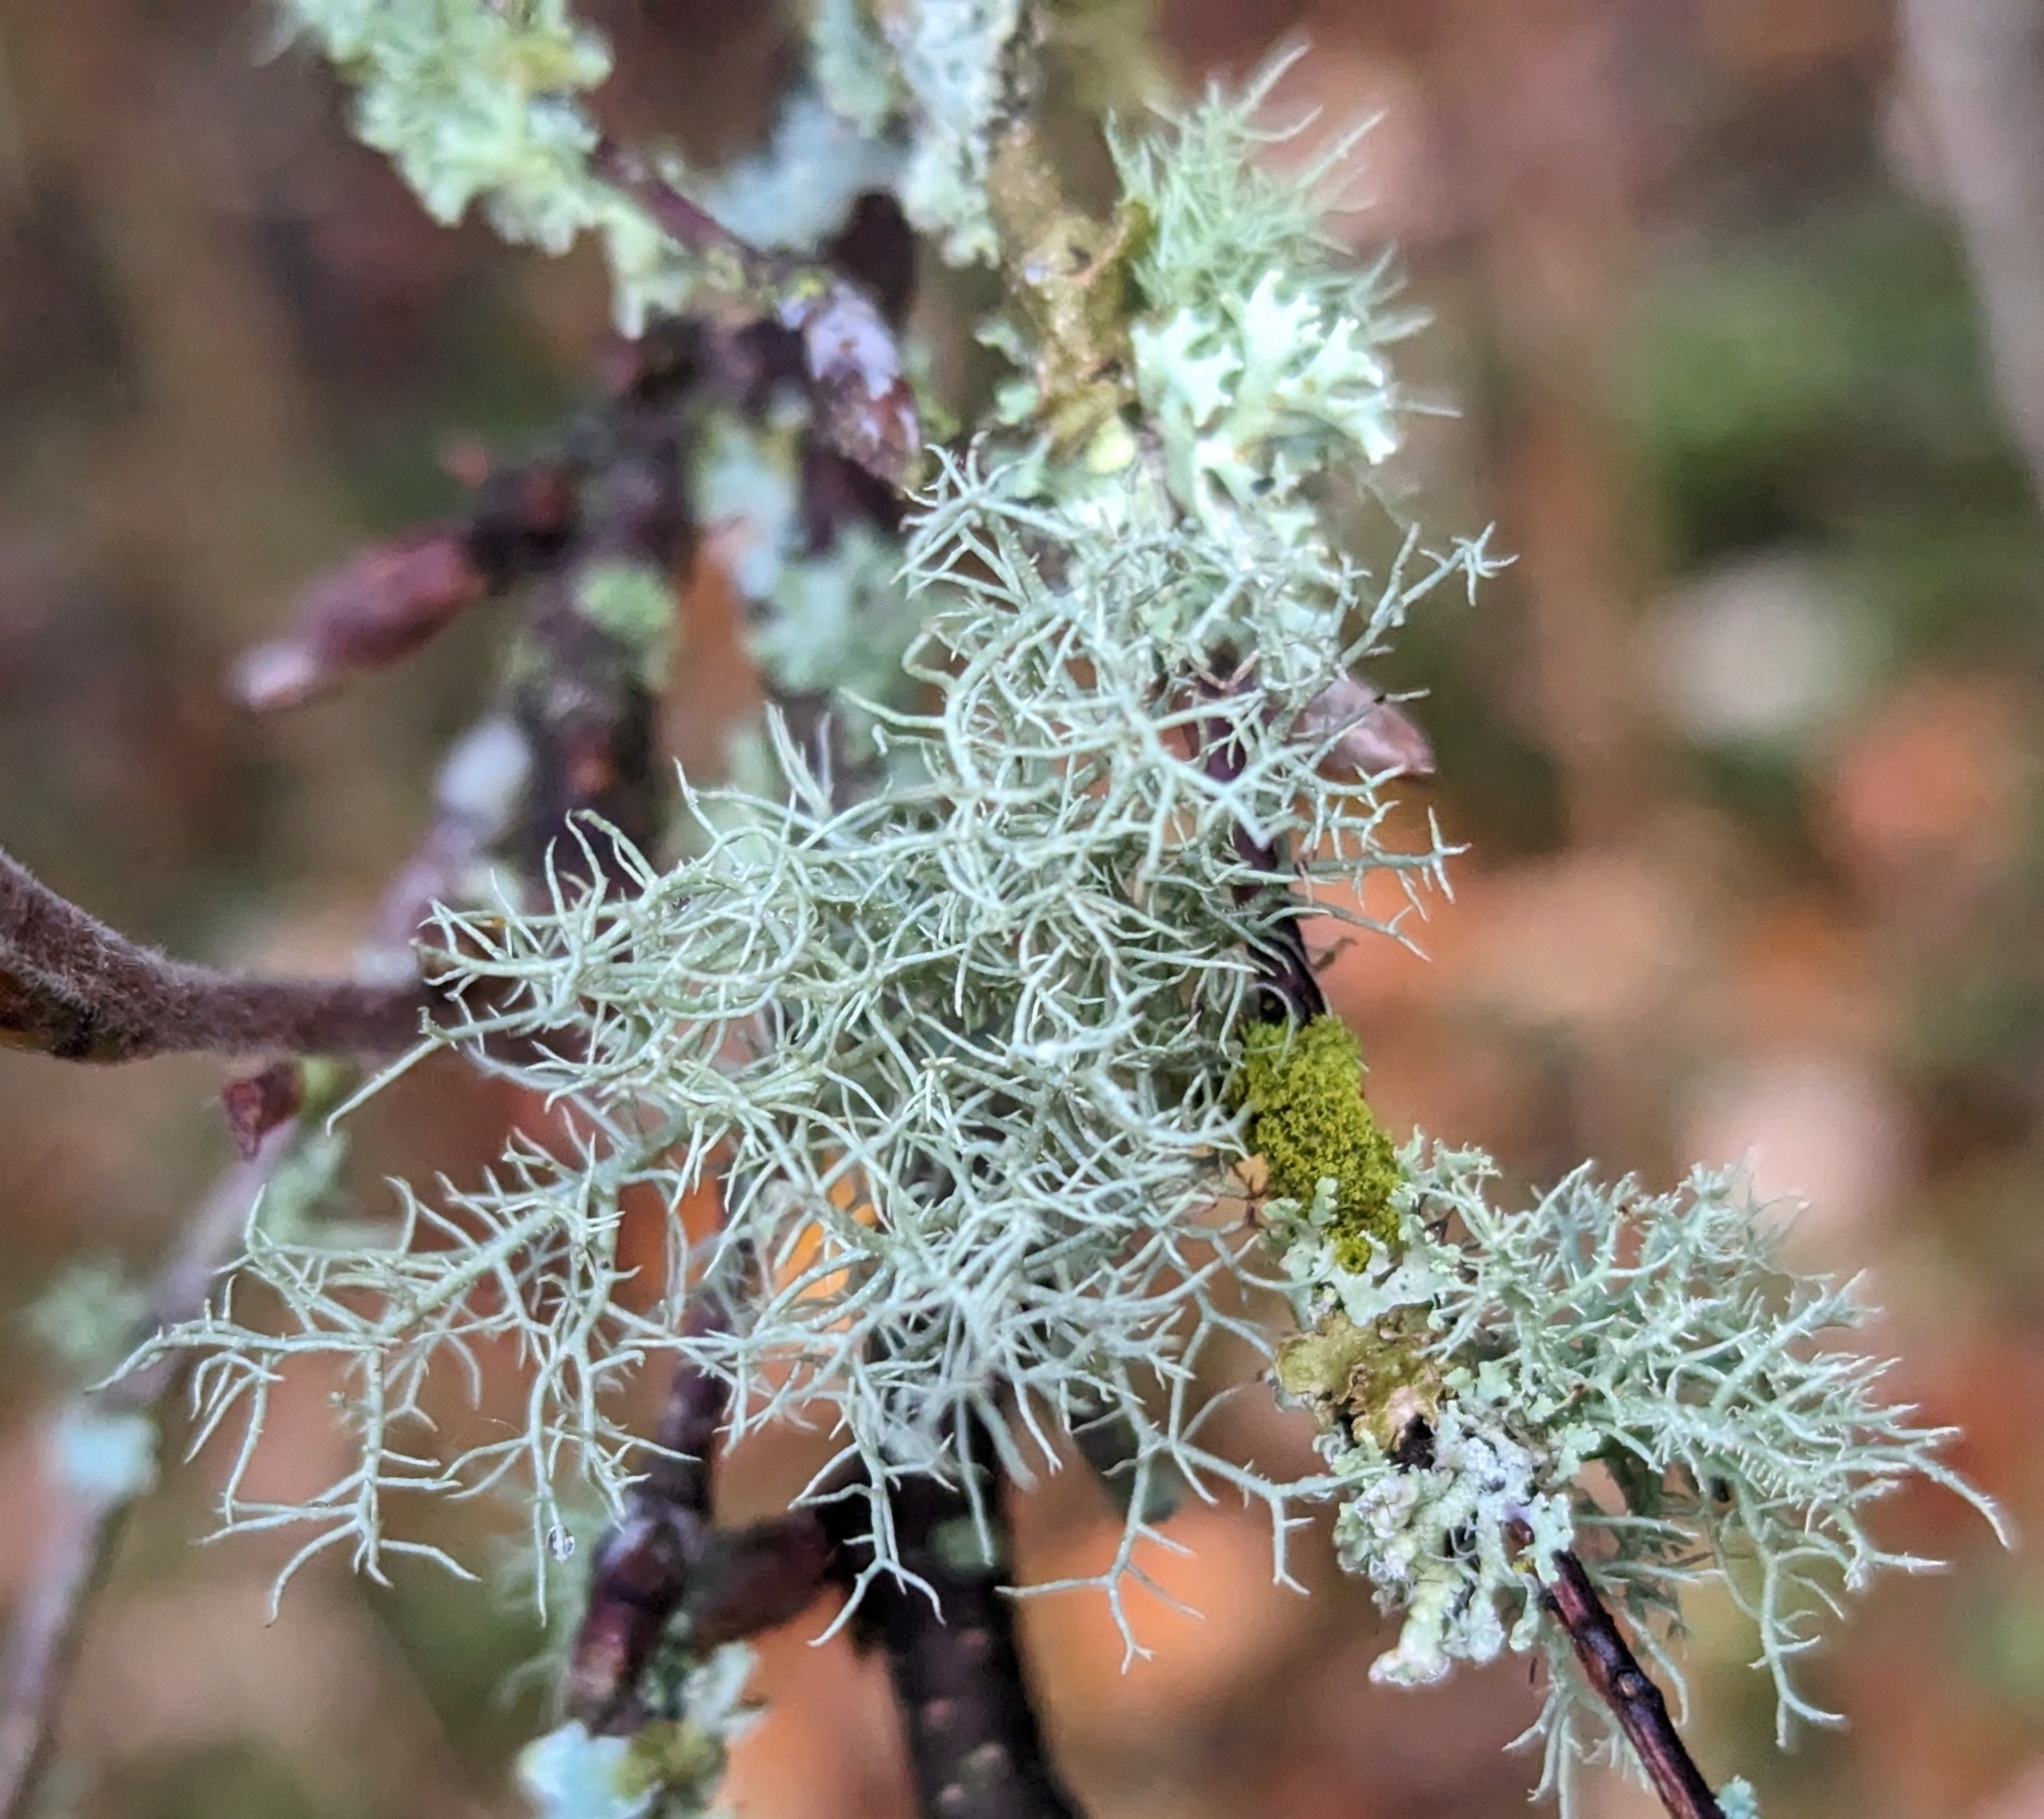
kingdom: Fungi
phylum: Ascomycota
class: Lecanoromycetes
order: Lecanorales
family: Parmeliaceae
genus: Usnea
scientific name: Usnea subfloridana
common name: Boreal beard lichen
